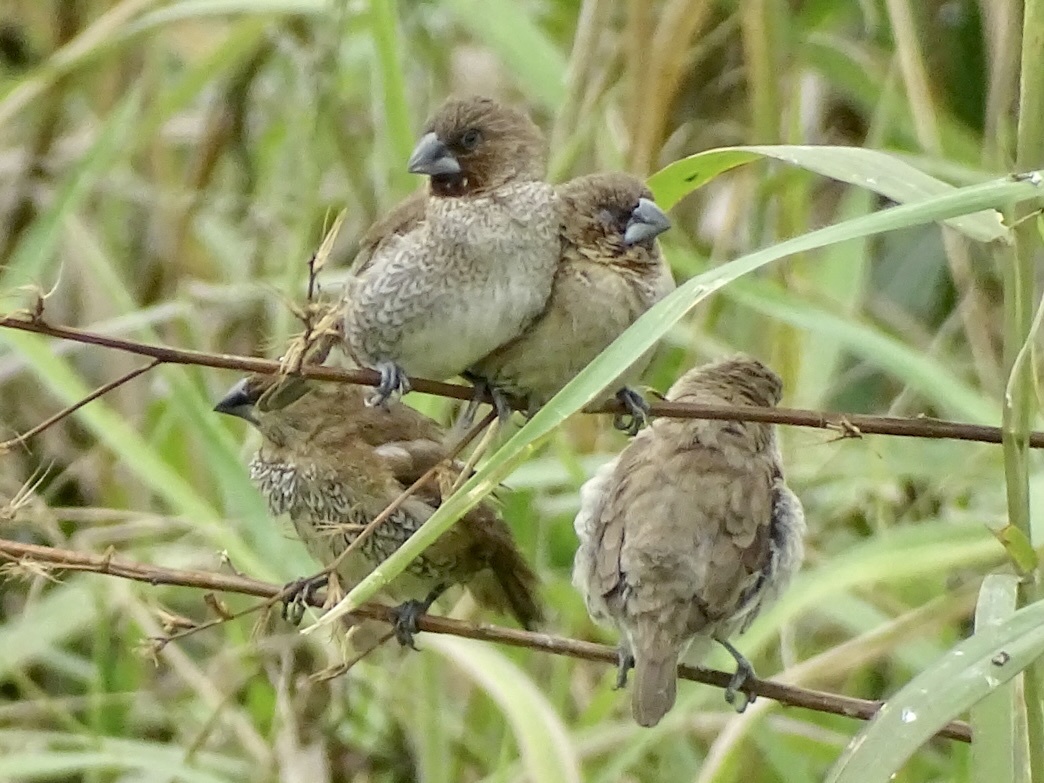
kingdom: Animalia
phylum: Chordata
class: Aves
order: Passeriformes
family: Estrildidae
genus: Lonchura
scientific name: Lonchura punctulata
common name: Scaly-breasted munia
